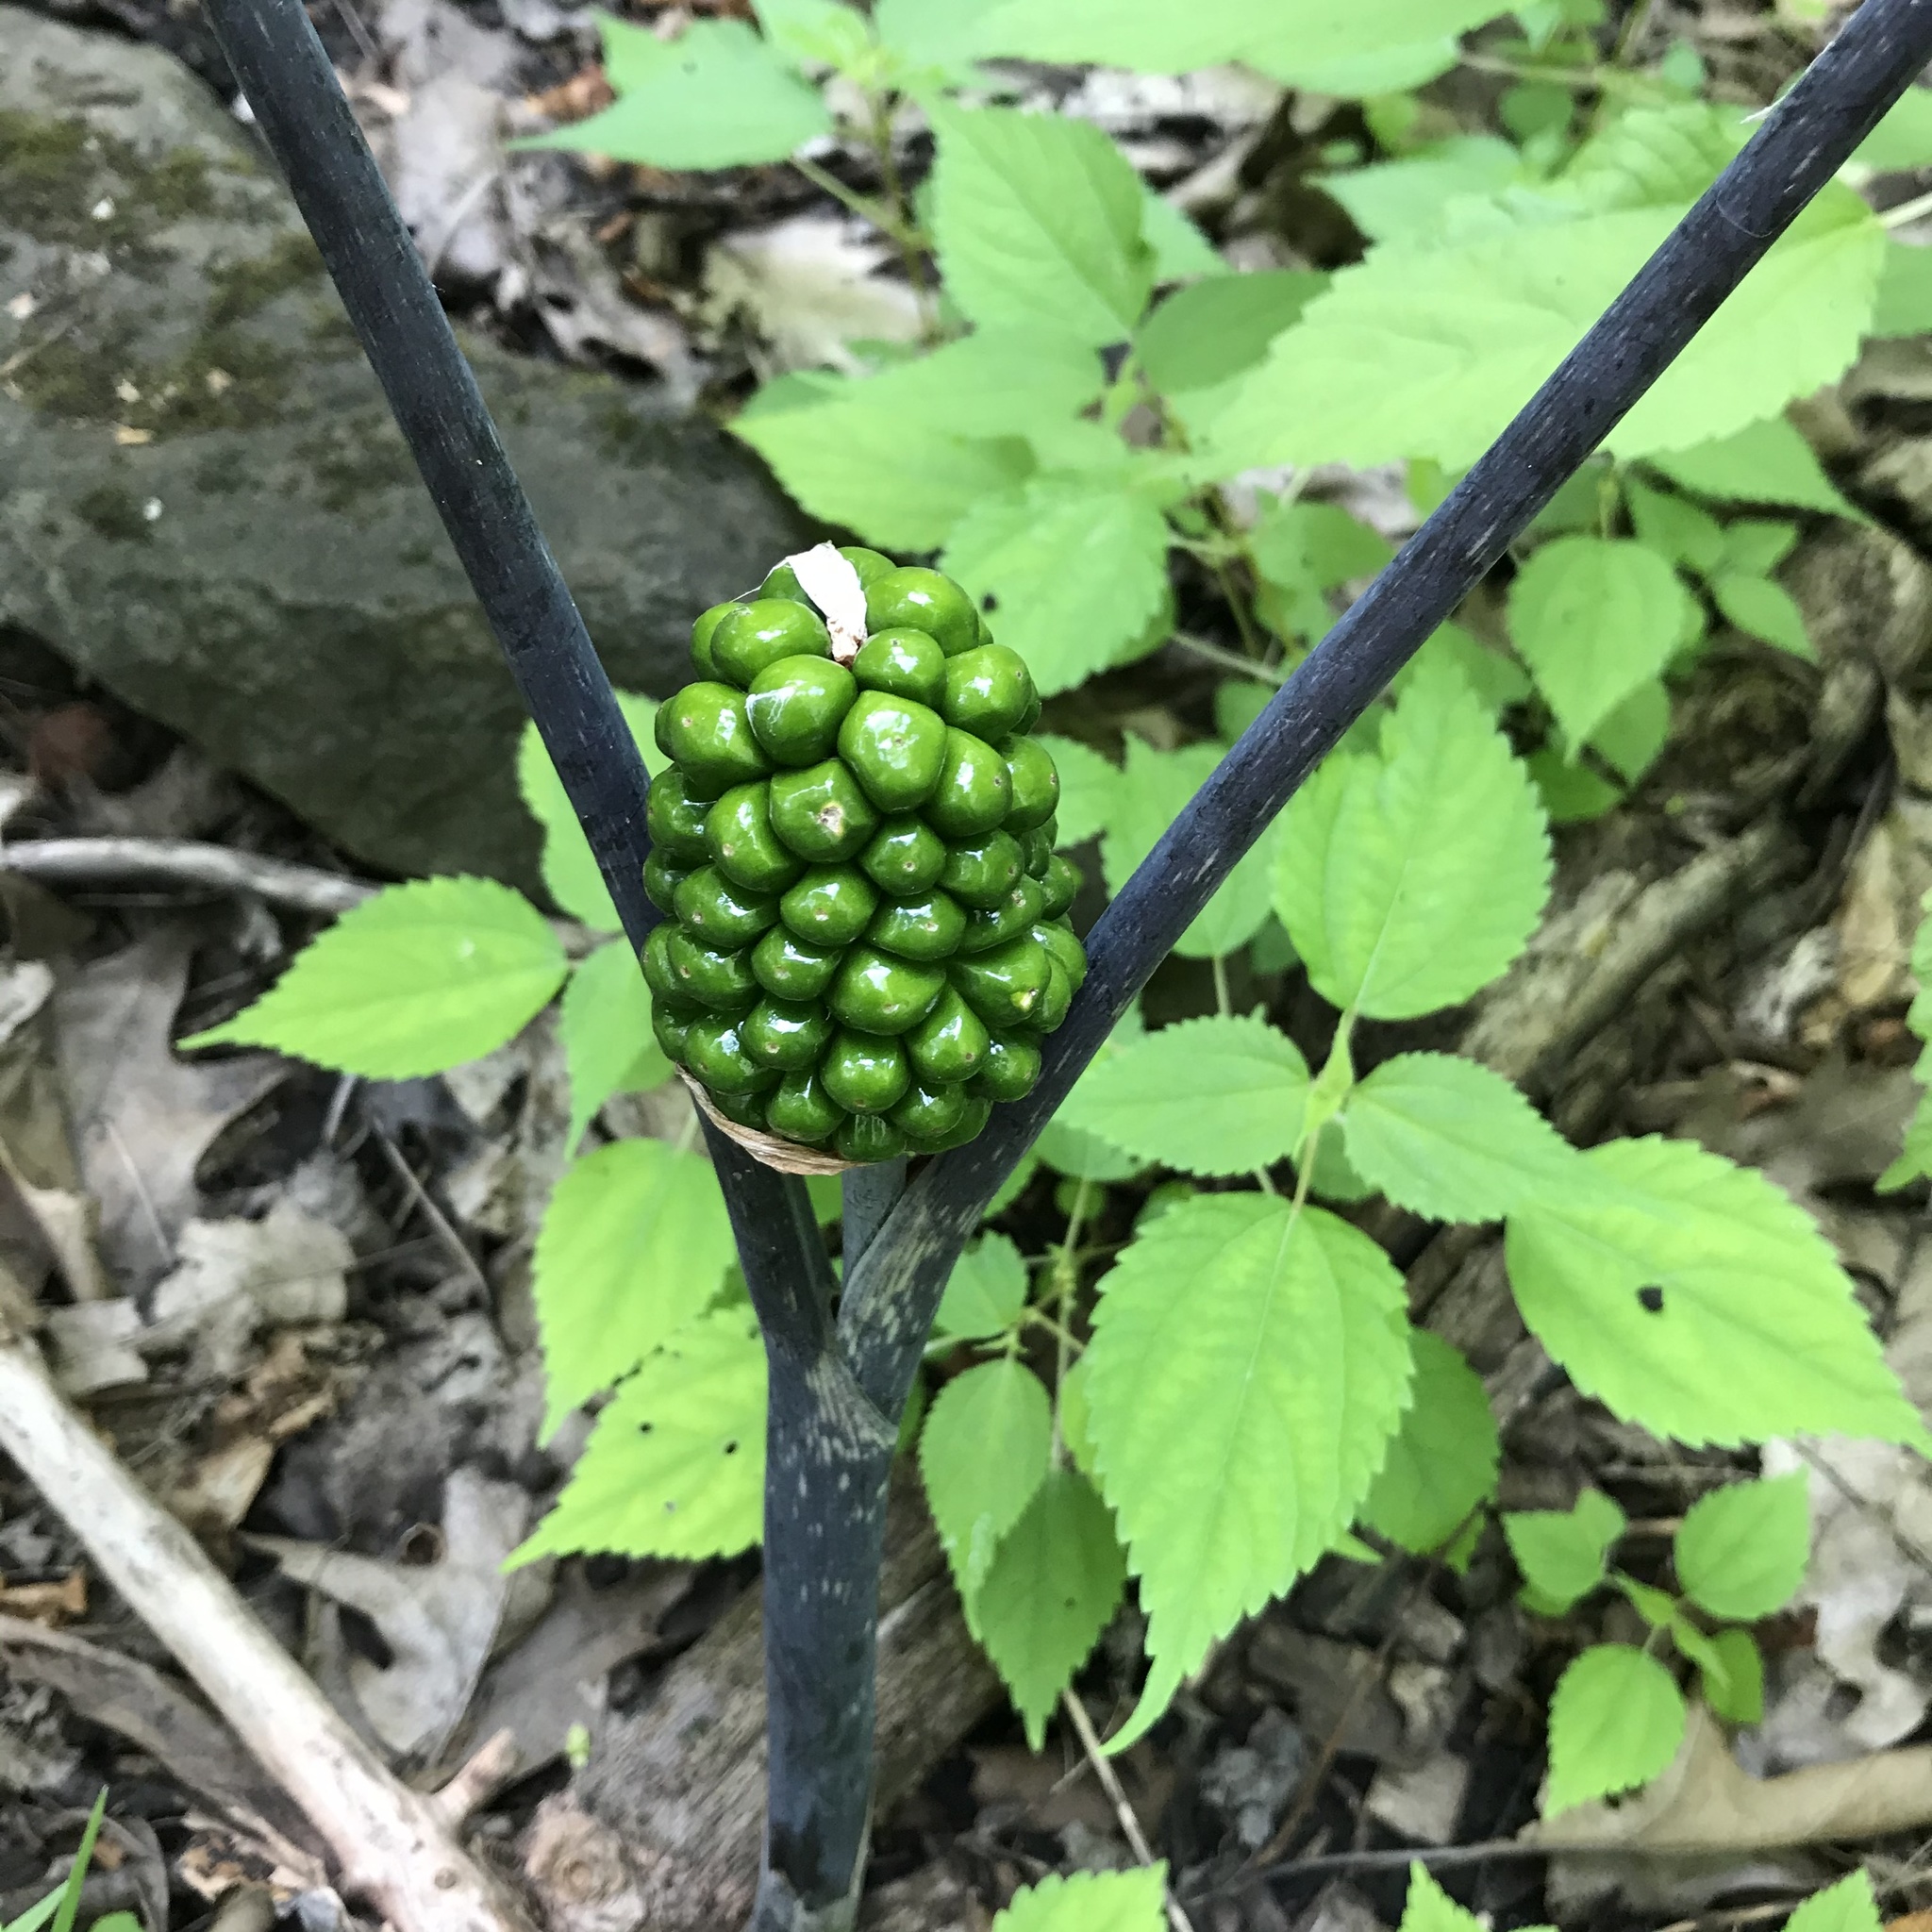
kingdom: Plantae
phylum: Tracheophyta
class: Liliopsida
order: Alismatales
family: Araceae
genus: Arisaema
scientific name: Arisaema triphyllum
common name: Jack-in-the-pulpit
